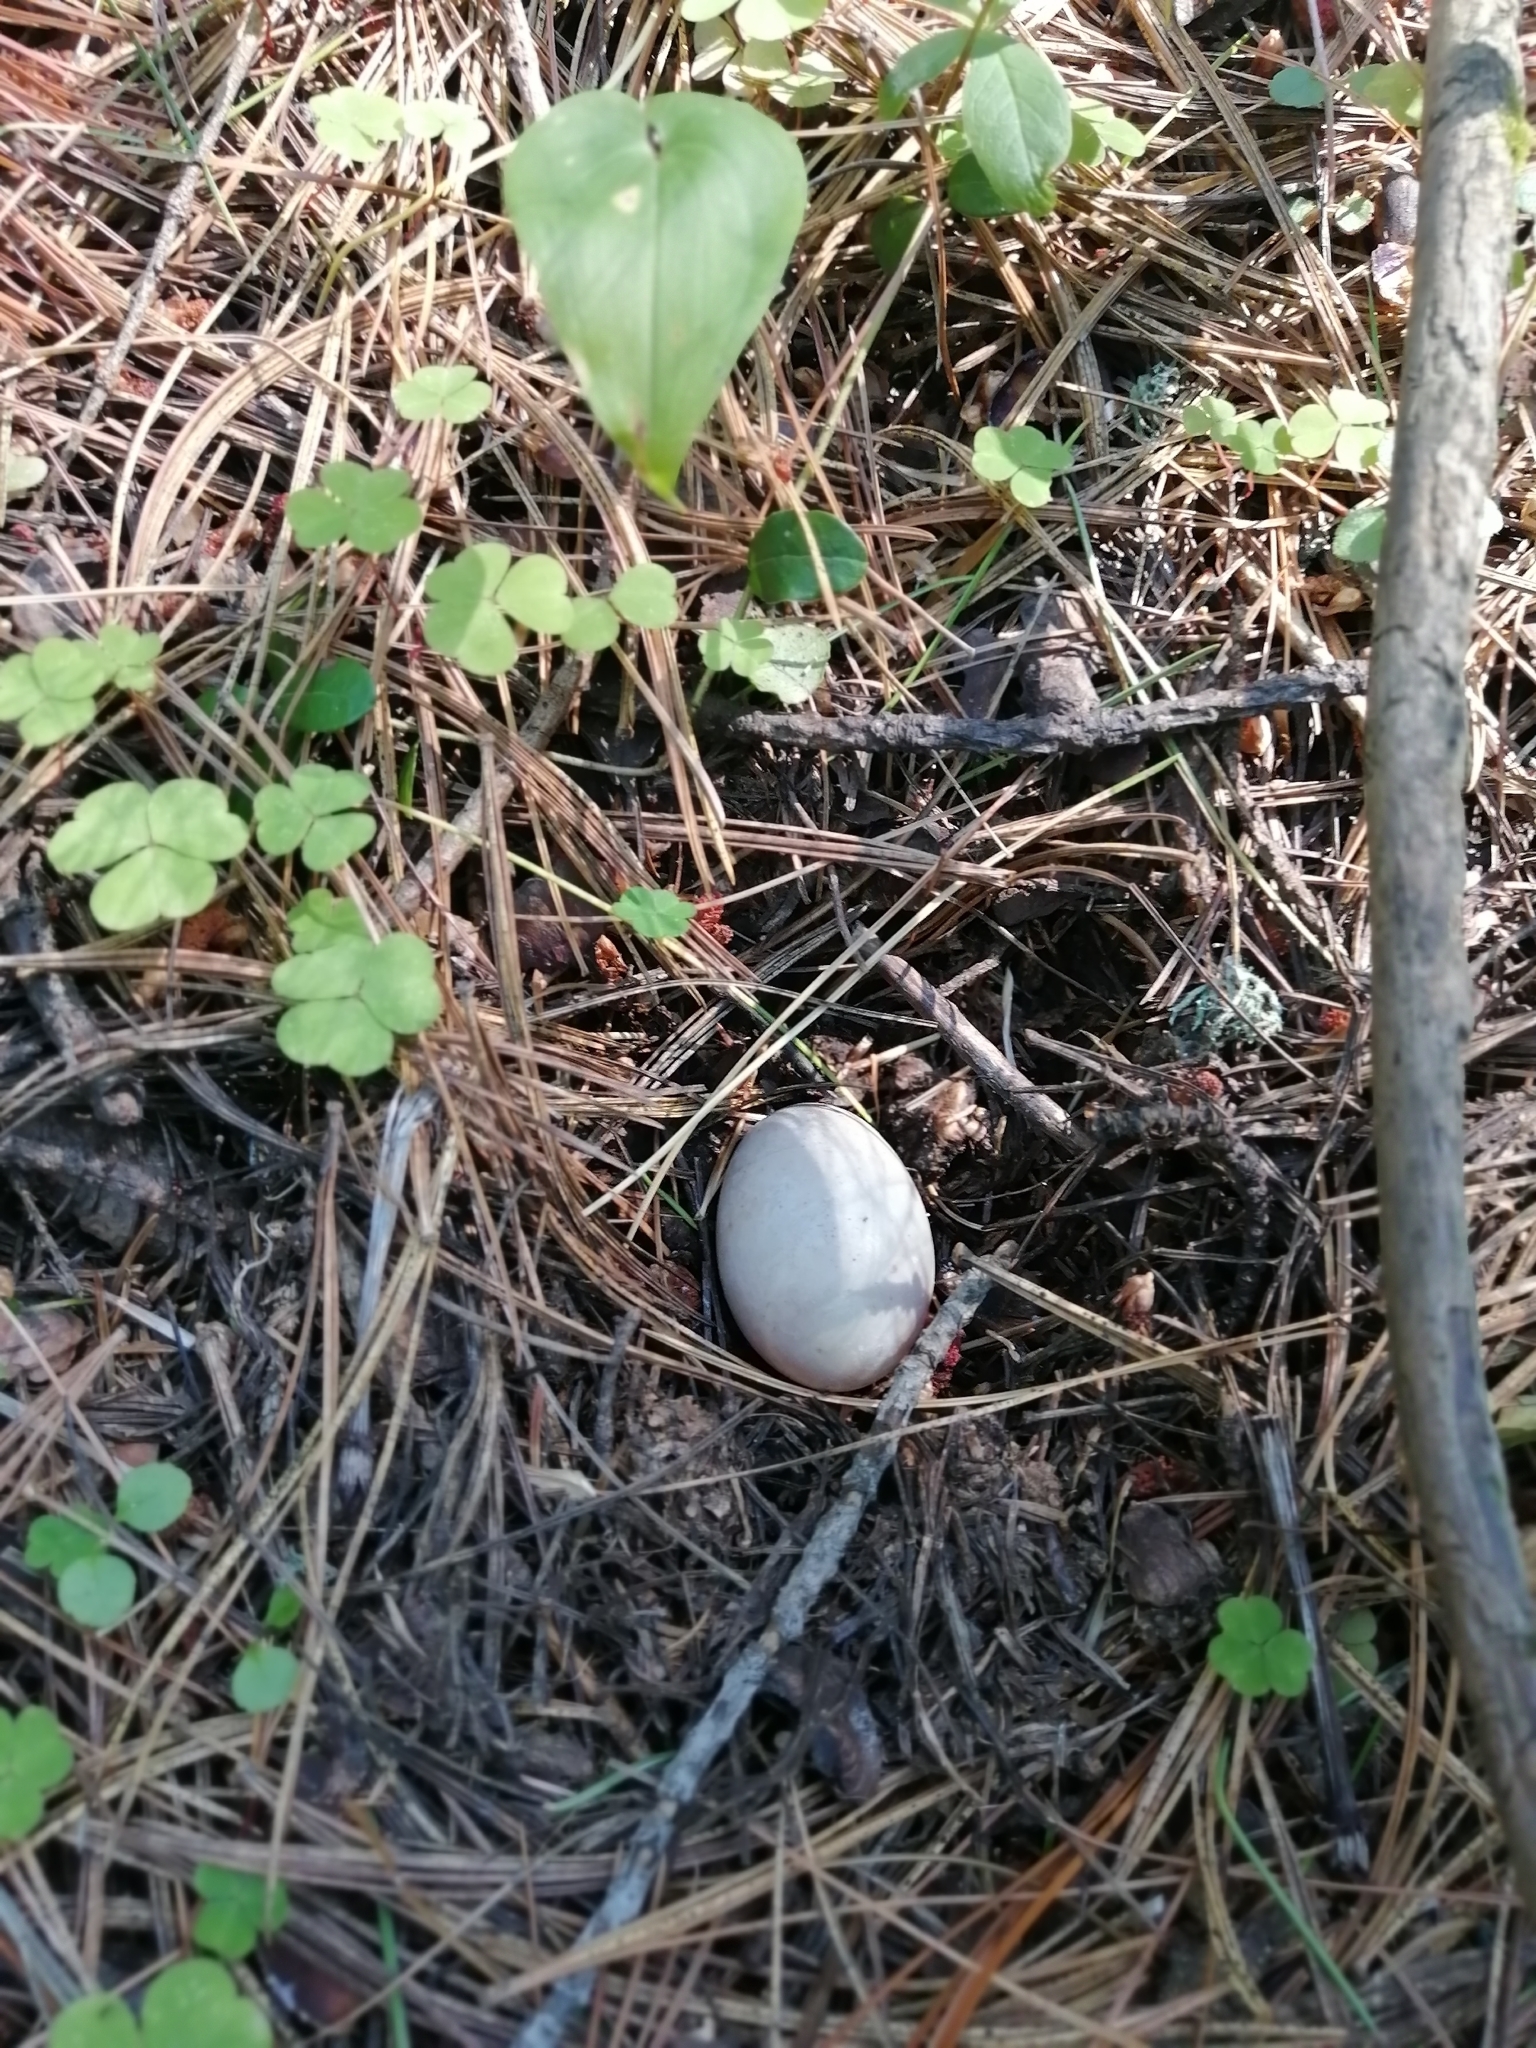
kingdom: Animalia
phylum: Chordata
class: Aves
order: Galliformes
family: Phasianidae
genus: Tetrastes
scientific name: Tetrastes bonasia
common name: Hazel grouse
